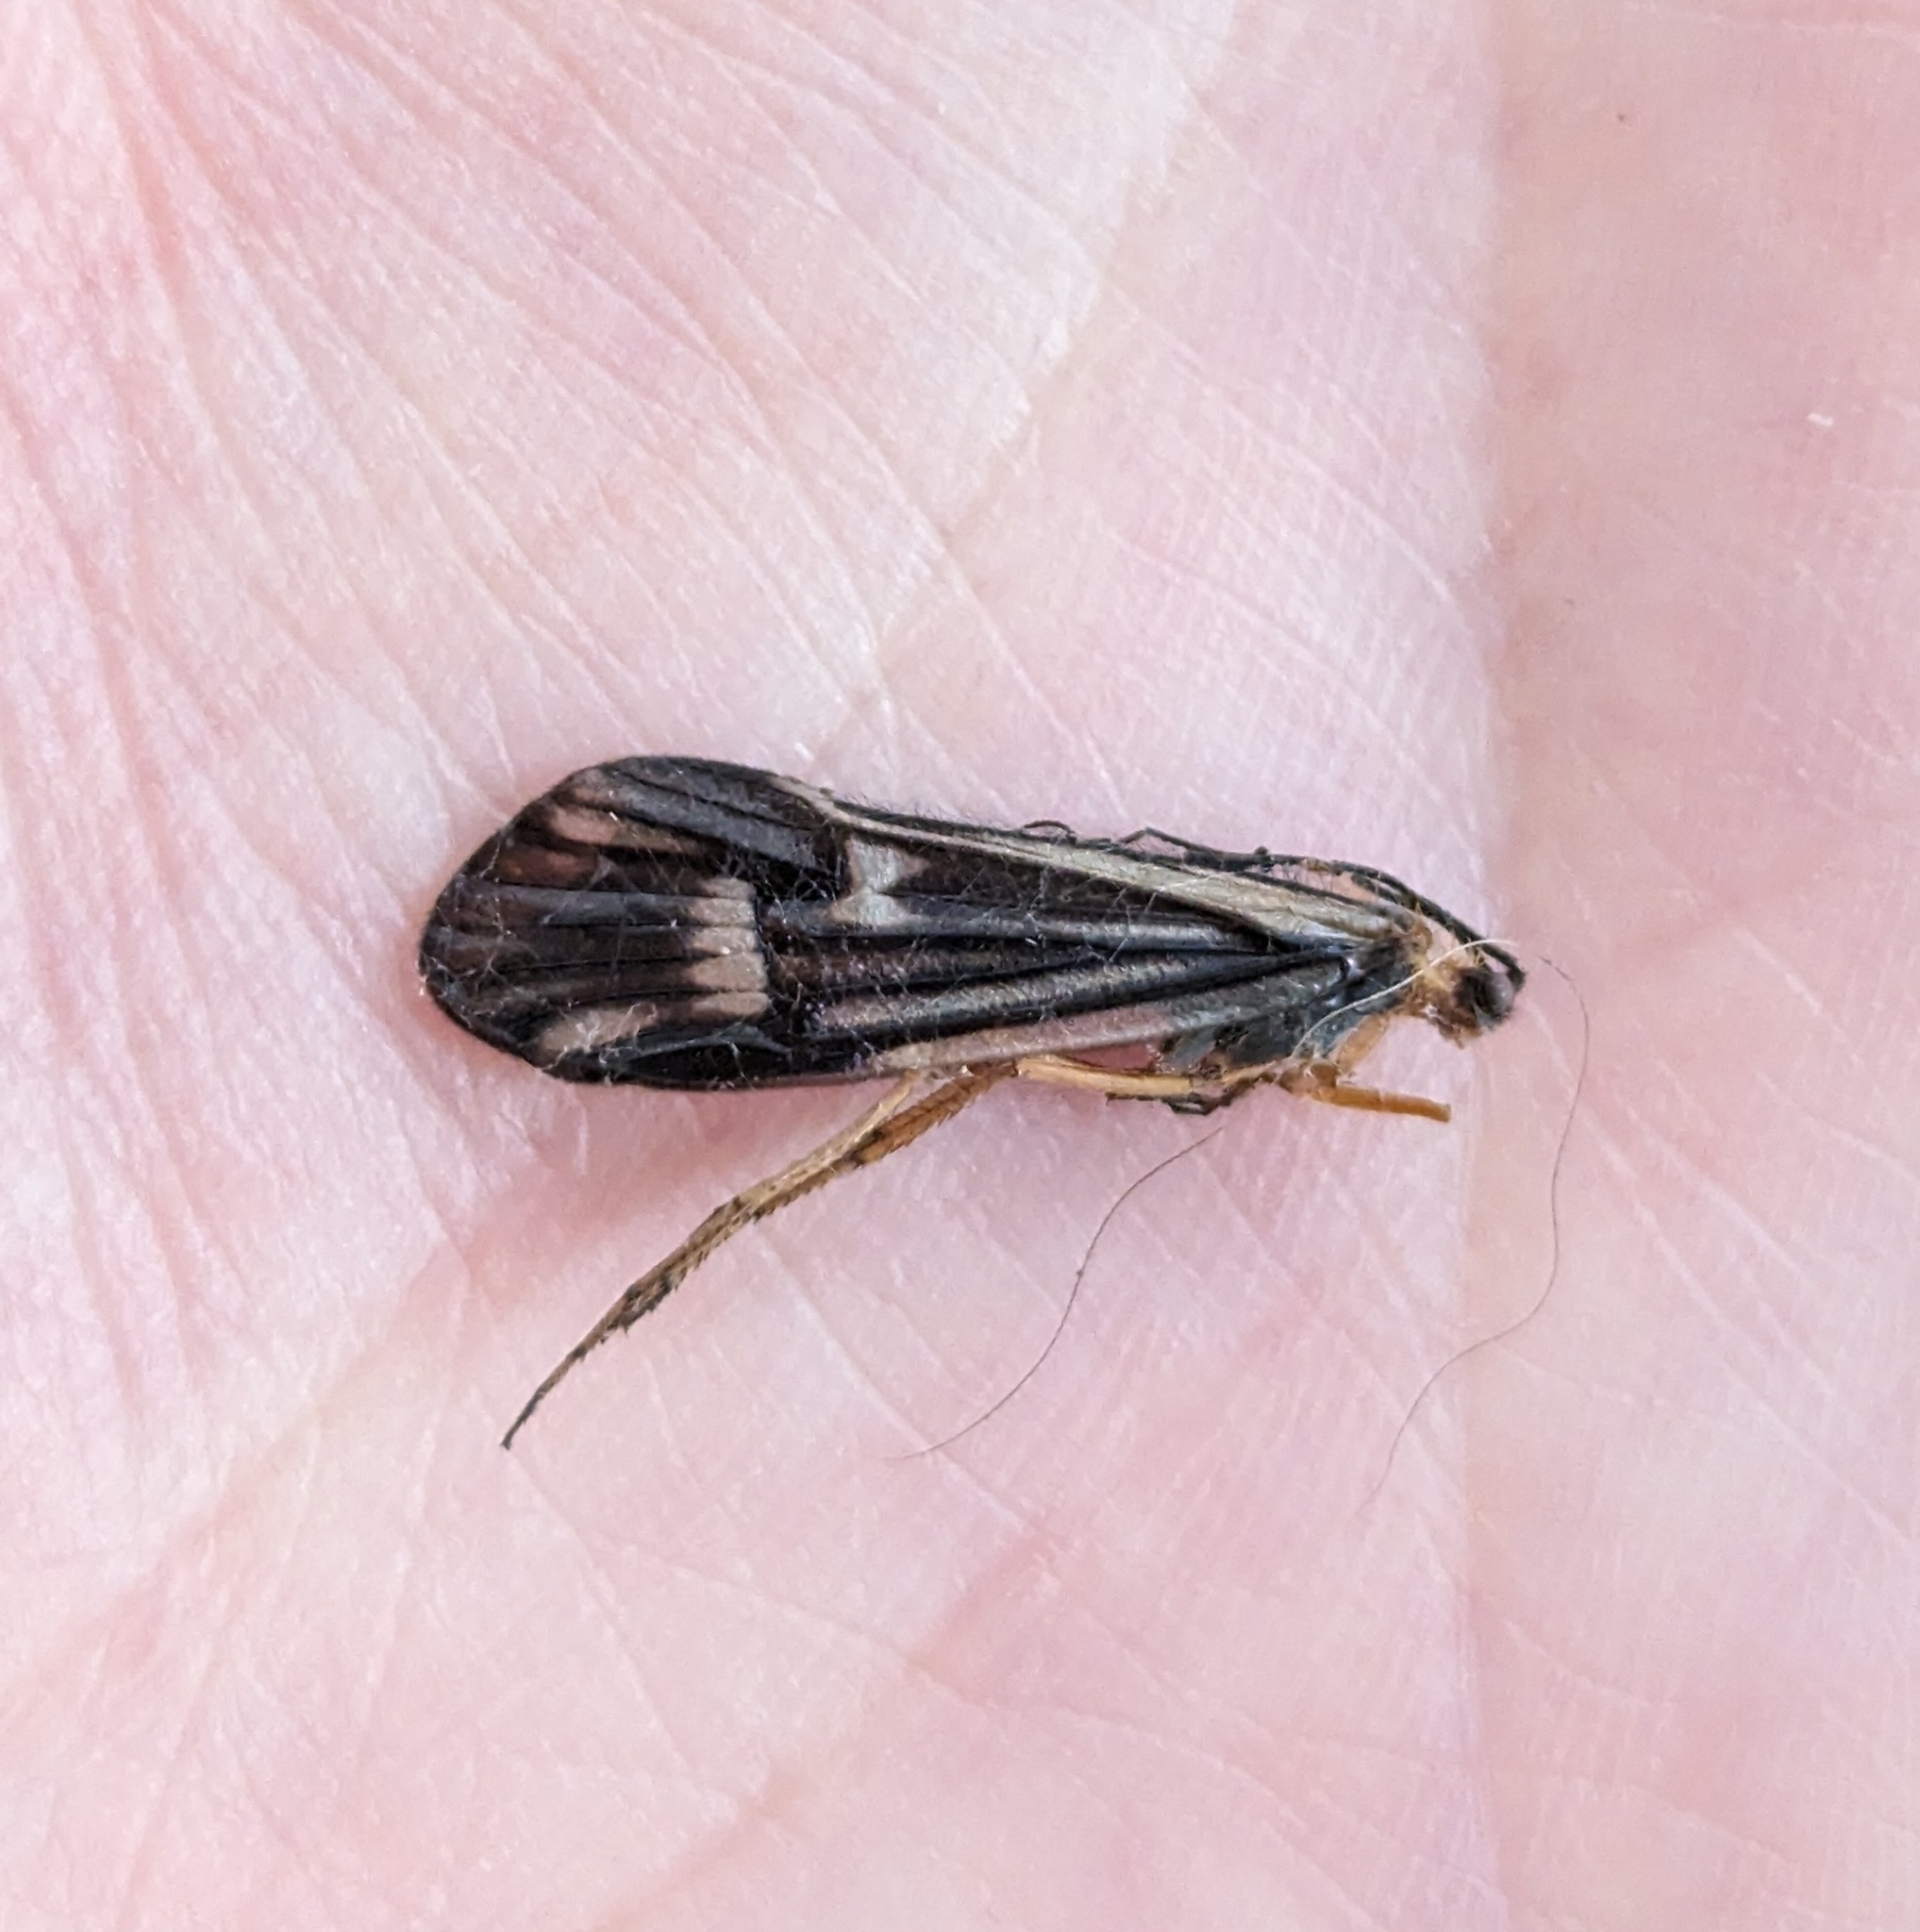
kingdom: Animalia
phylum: Arthropoda
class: Insecta
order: Trichoptera
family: Limnephilidae
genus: Halesochila
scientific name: Halesochila taylori
